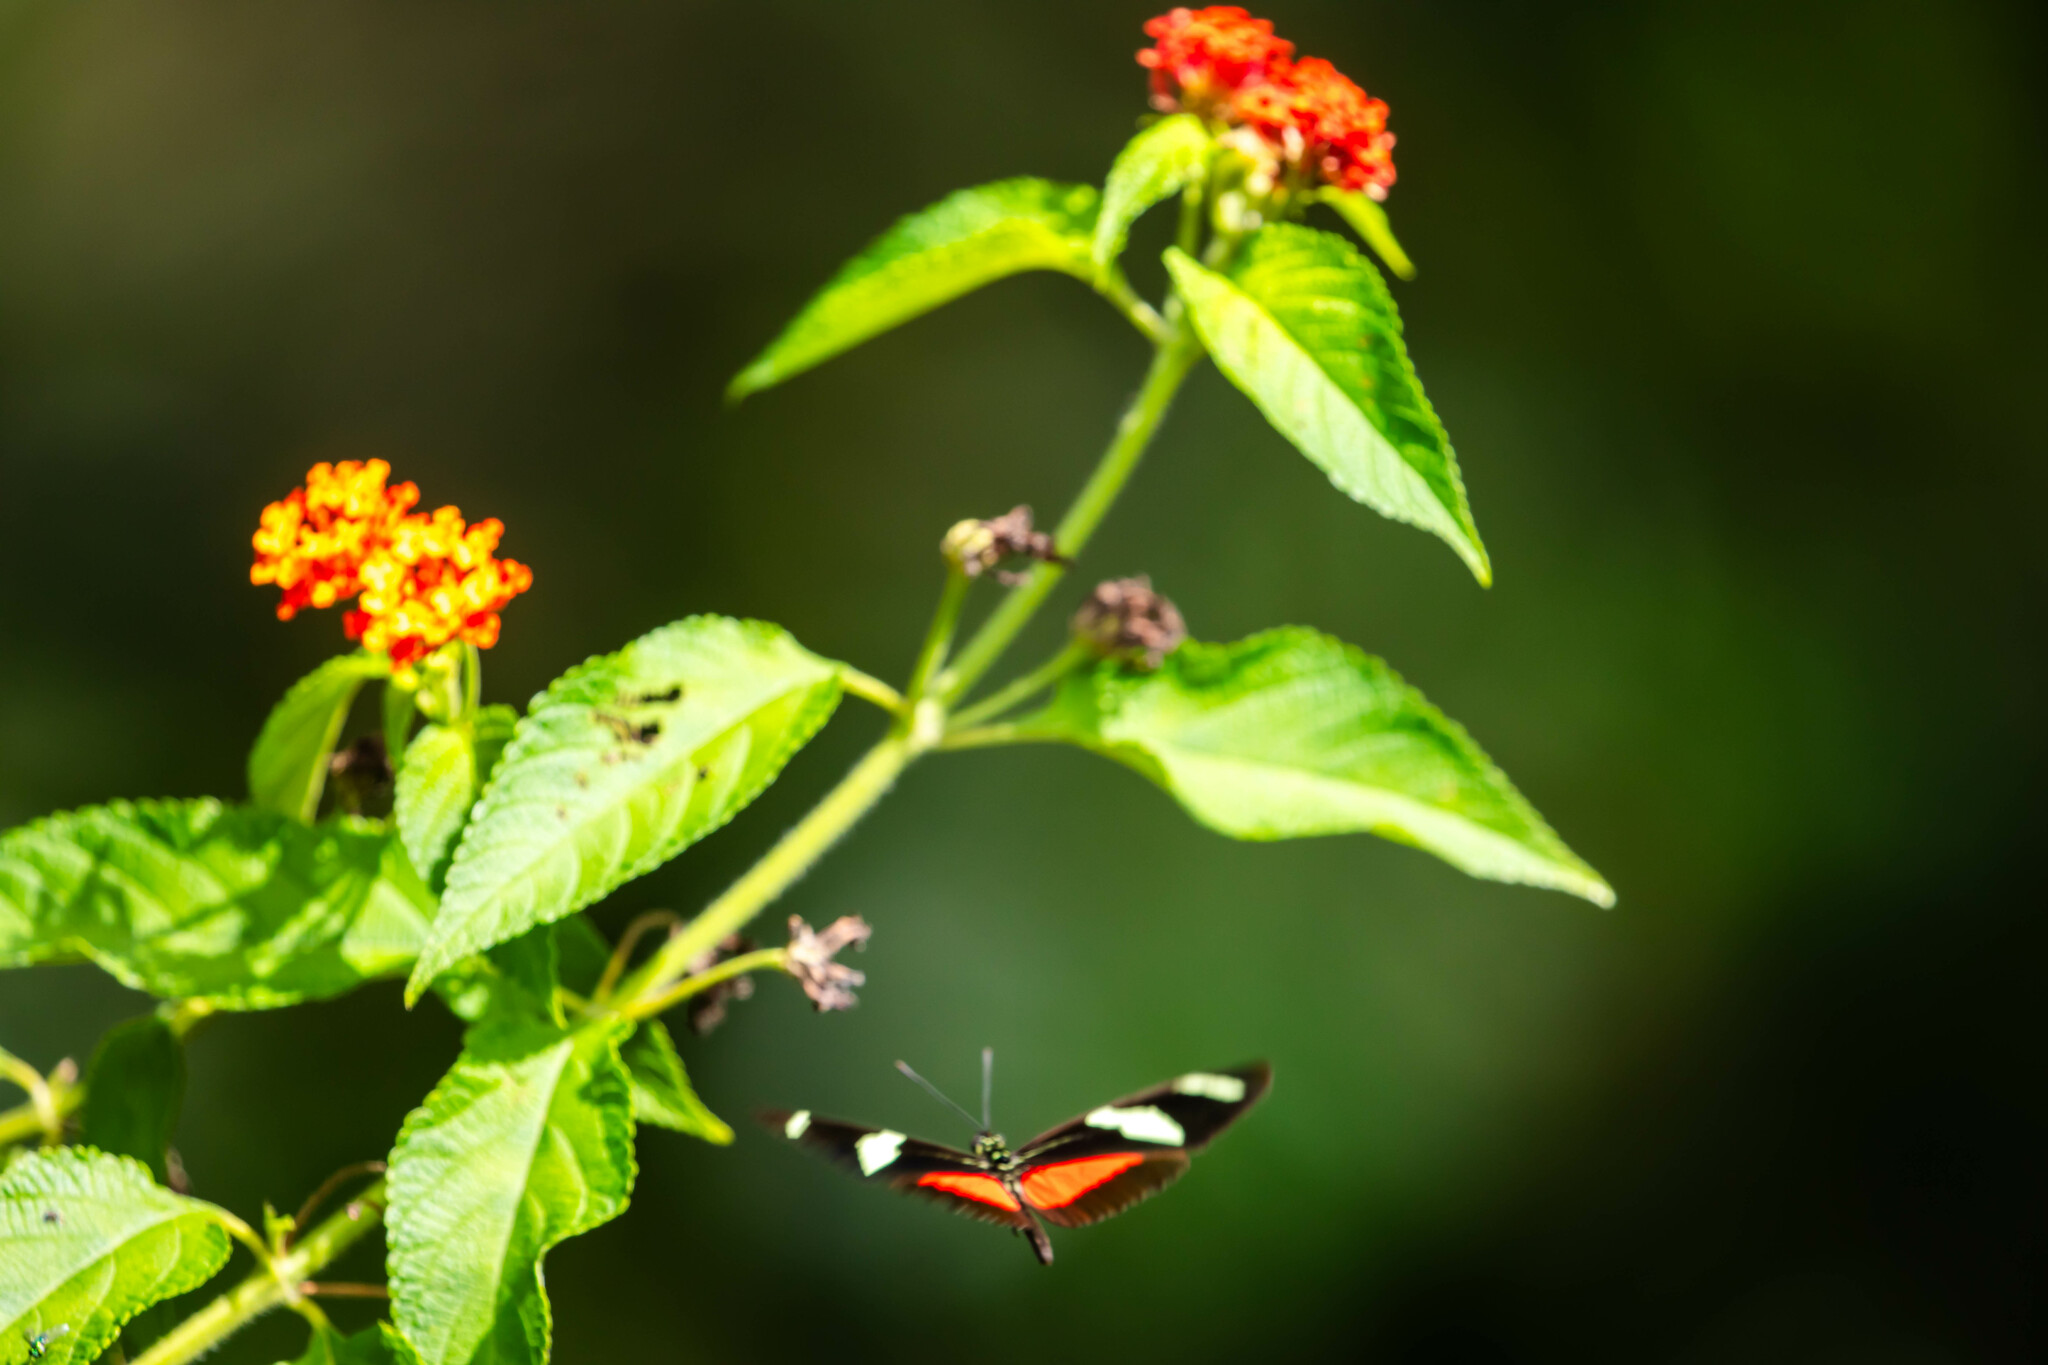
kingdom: Animalia
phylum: Arthropoda
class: Insecta
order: Lepidoptera
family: Nymphalidae
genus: Heliconius
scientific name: Heliconius ricini
